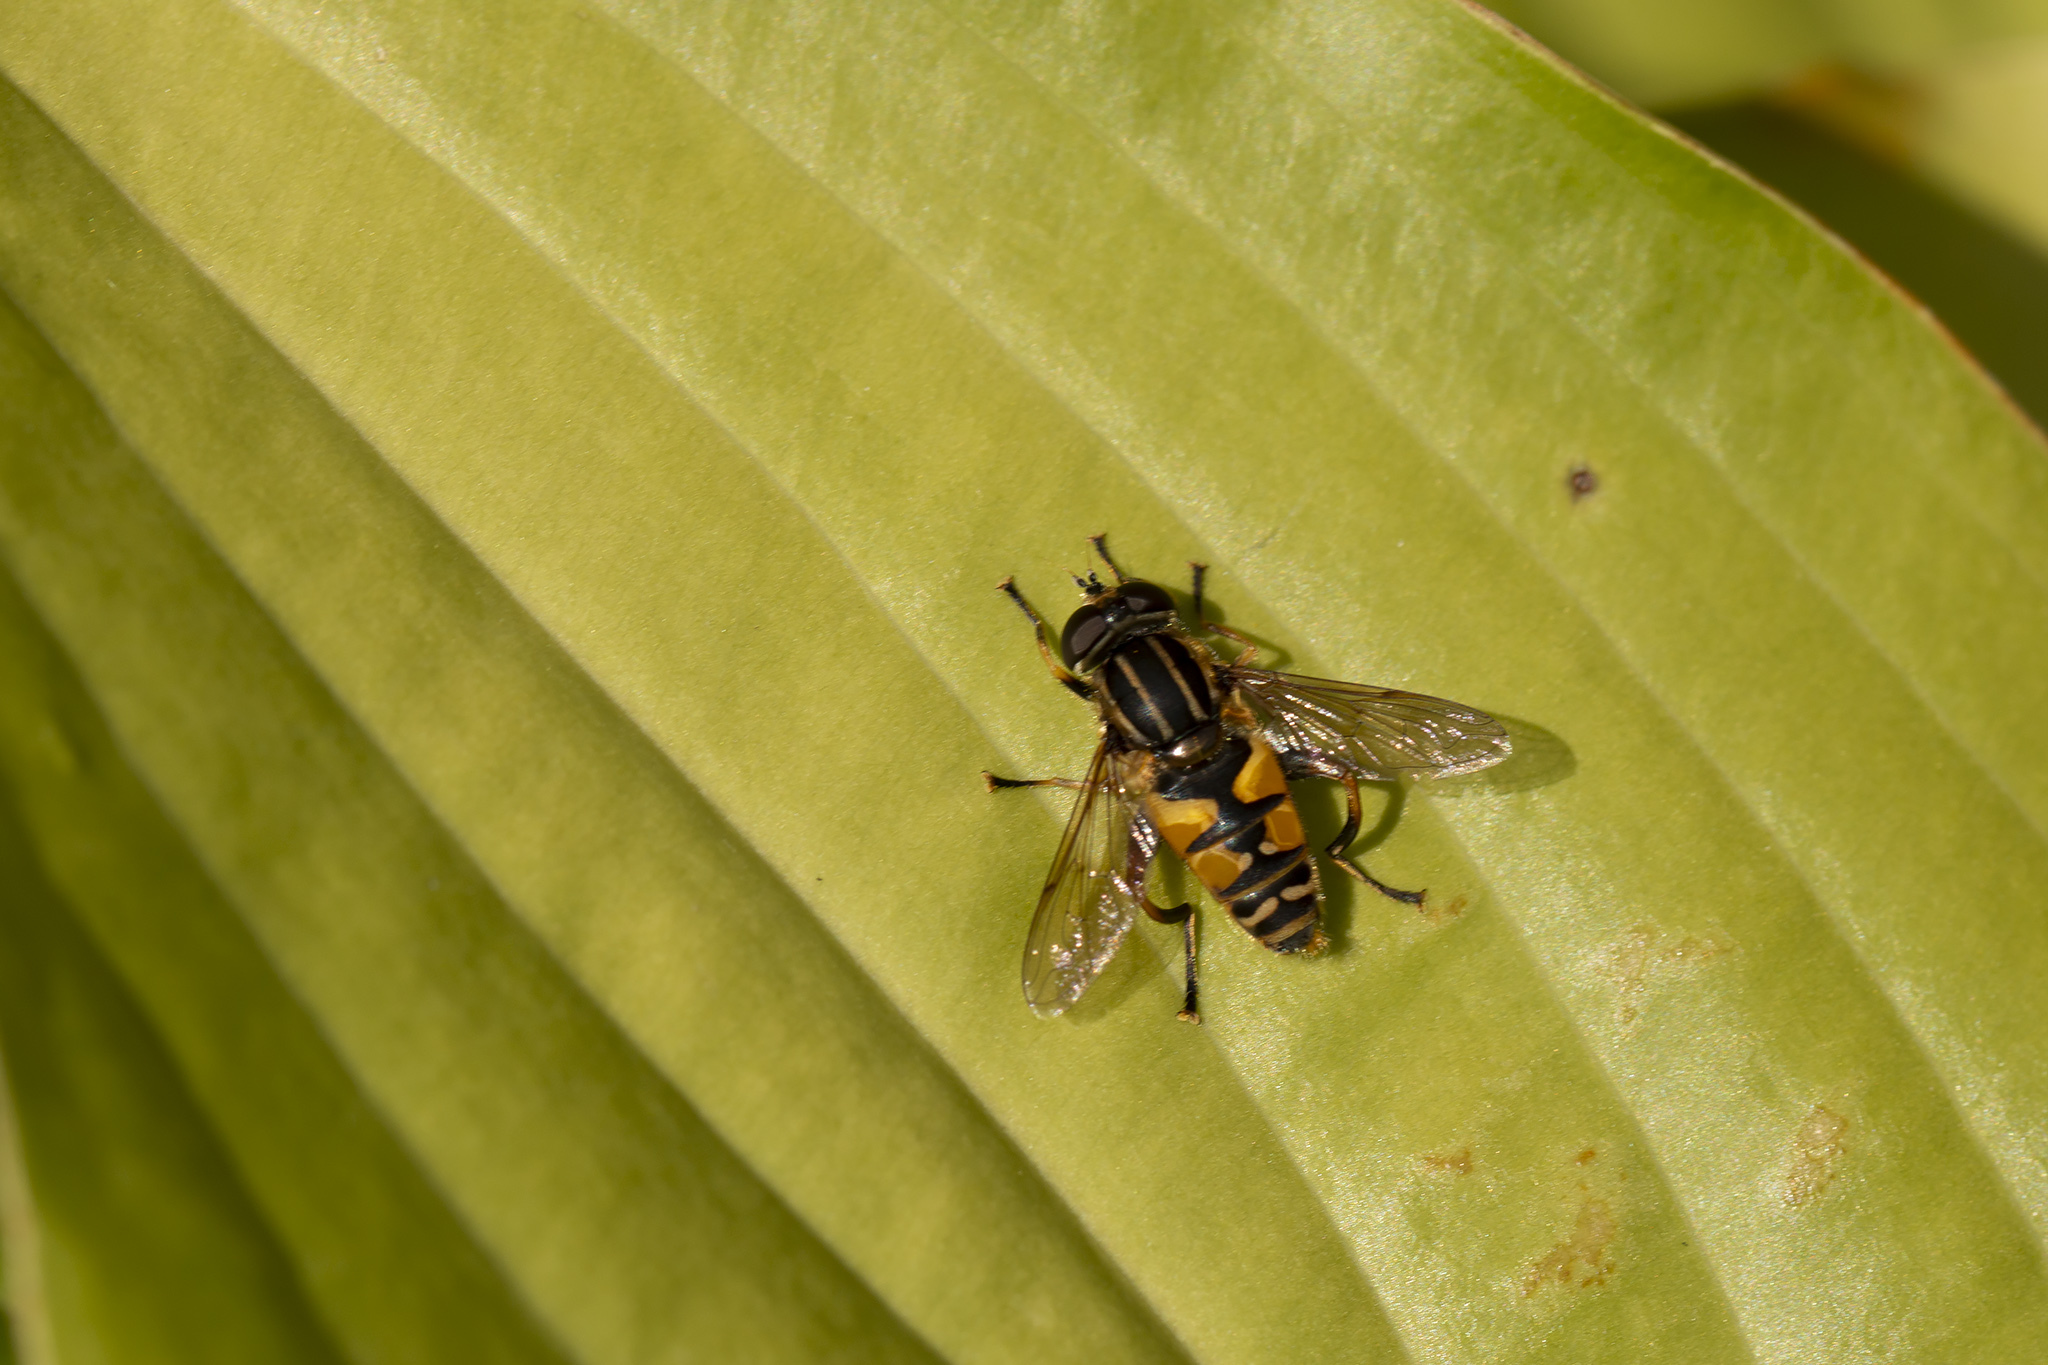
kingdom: Animalia
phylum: Arthropoda
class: Insecta
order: Diptera
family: Syrphidae
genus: Helophilus
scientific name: Helophilus pendulus
